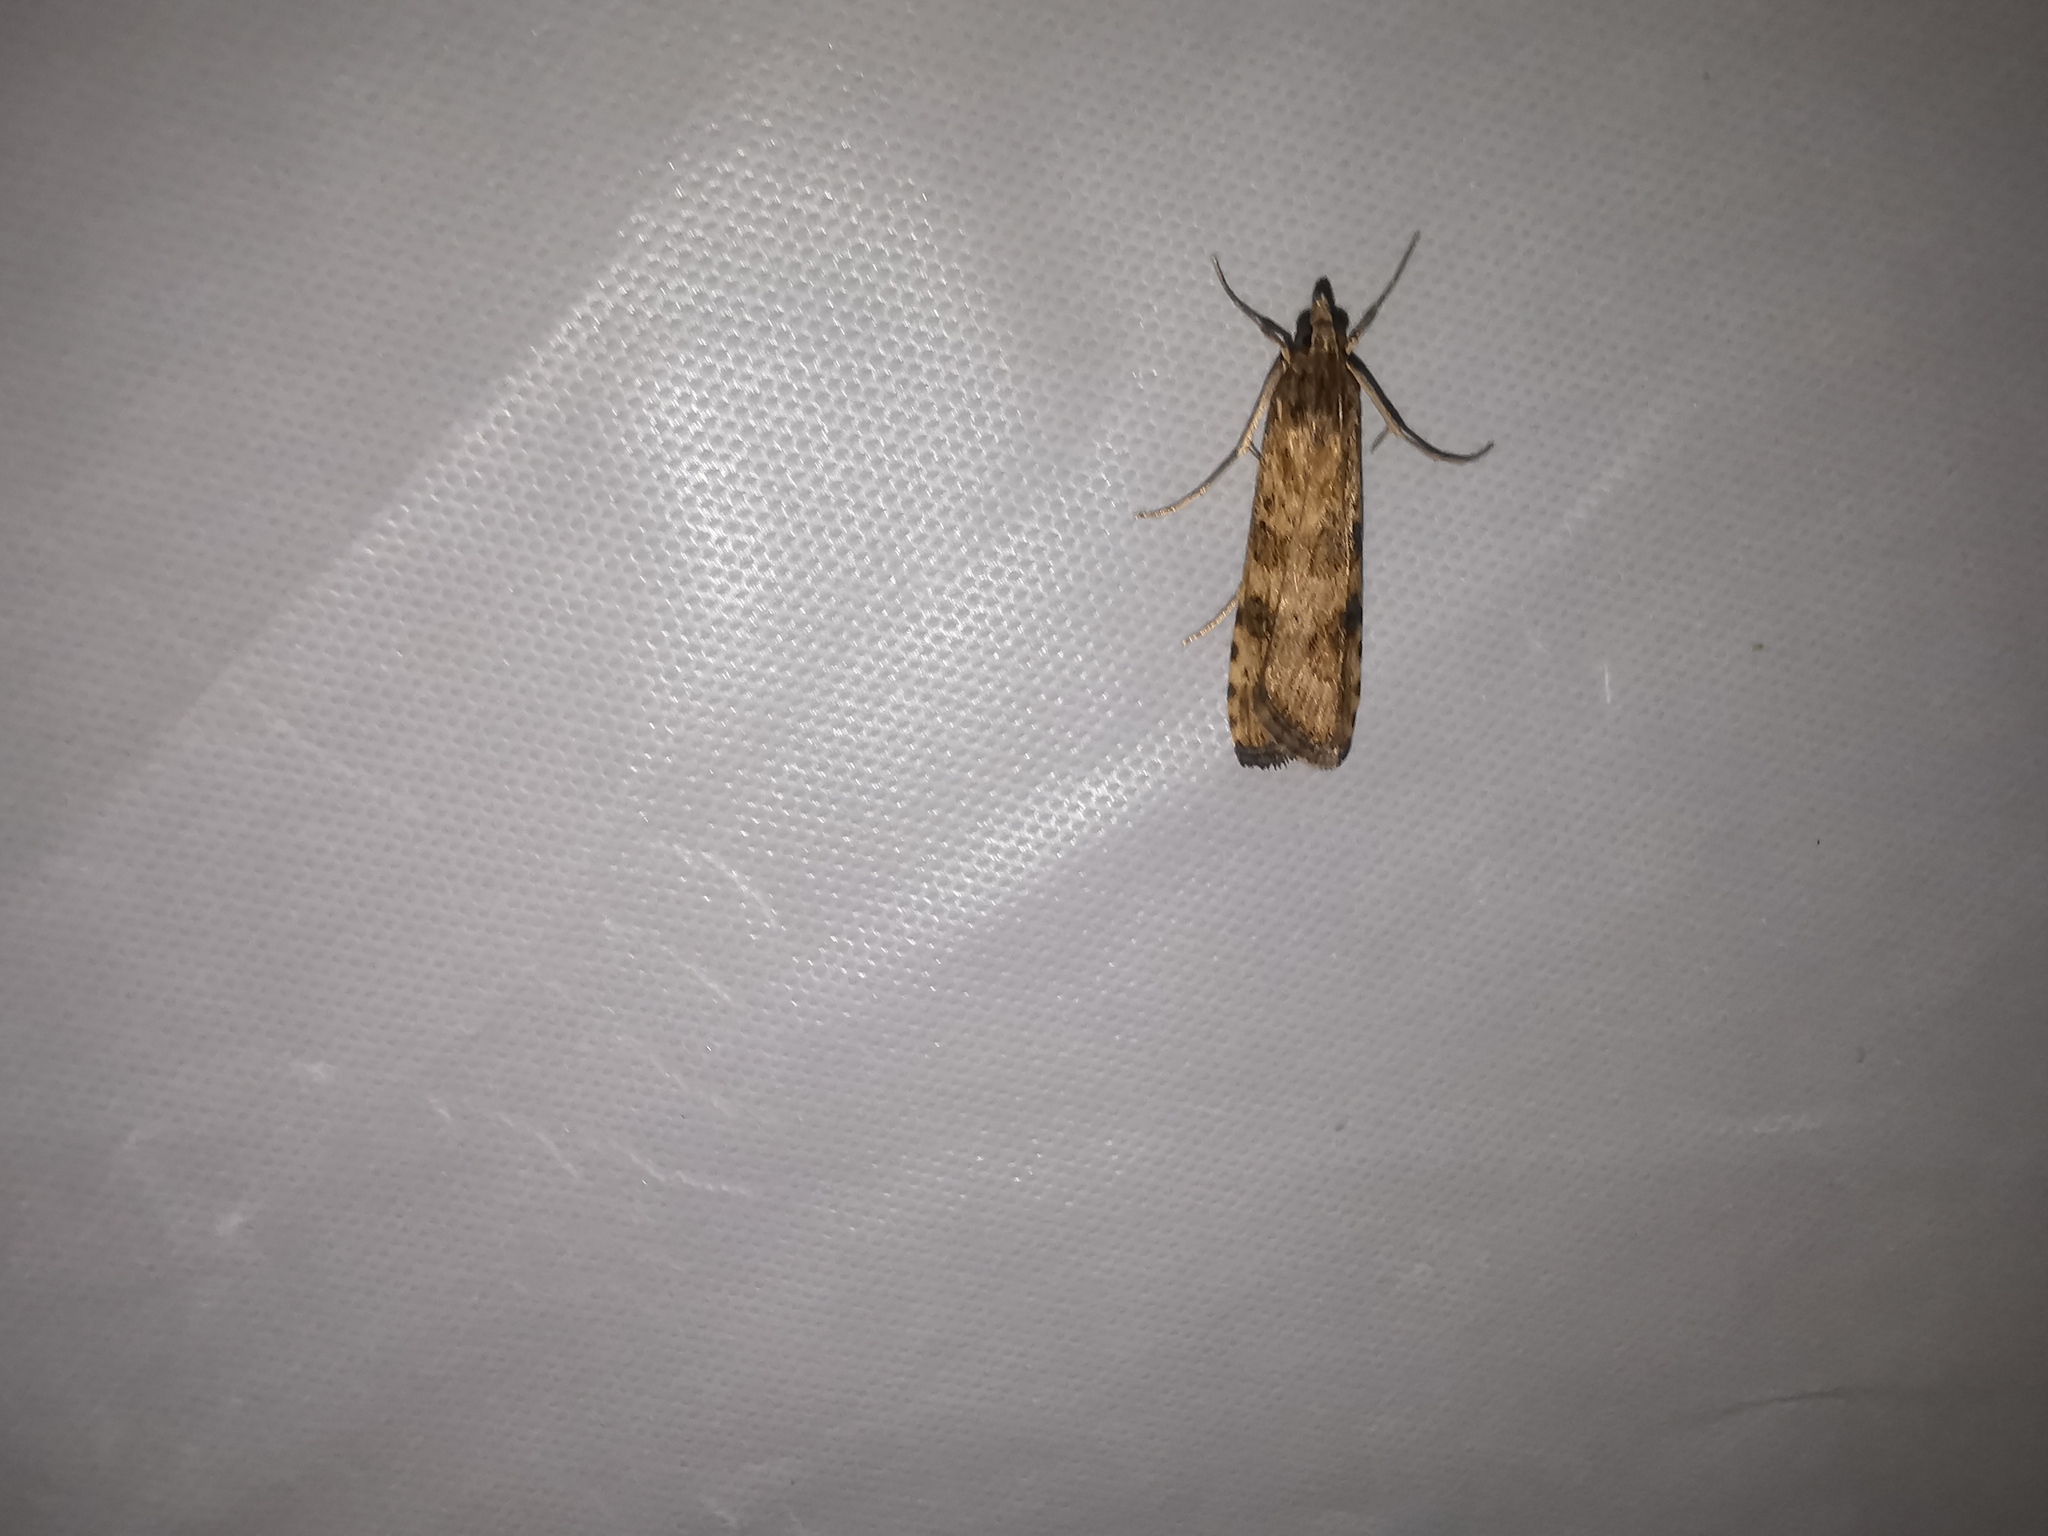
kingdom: Animalia
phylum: Arthropoda
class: Insecta
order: Lepidoptera
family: Crambidae
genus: Nomophila
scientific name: Nomophila noctuella
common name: Rush veneer
